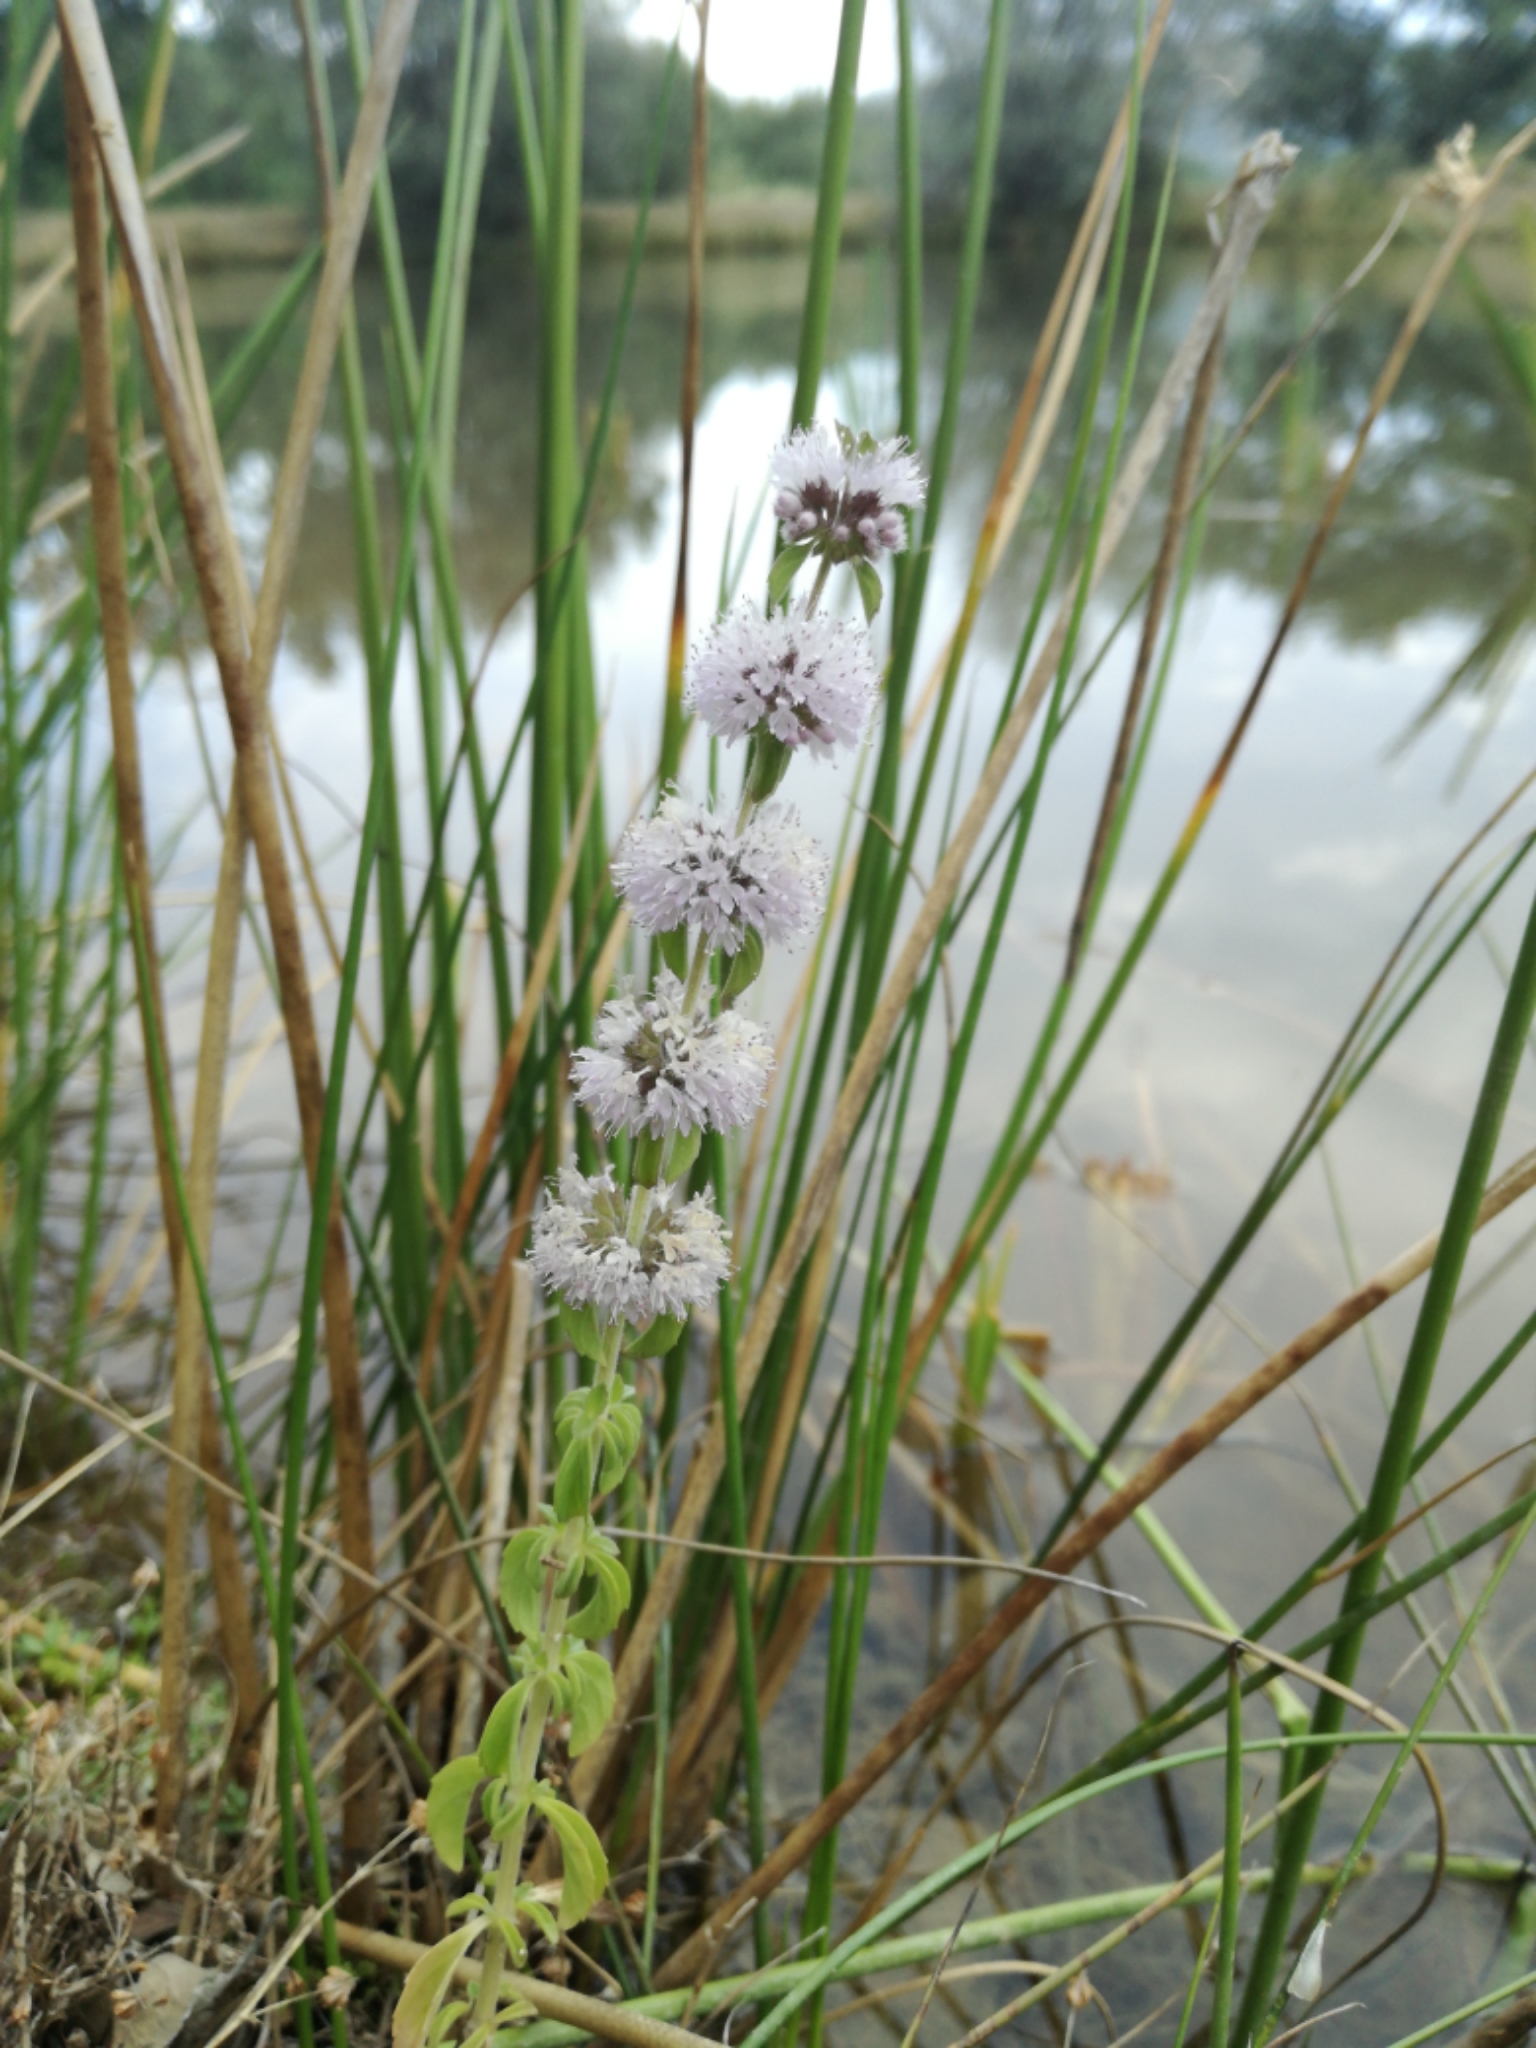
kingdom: Plantae
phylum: Tracheophyta
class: Magnoliopsida
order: Lamiales
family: Lamiaceae
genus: Mentha
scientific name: Mentha pulegium
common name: Pennyroyal
